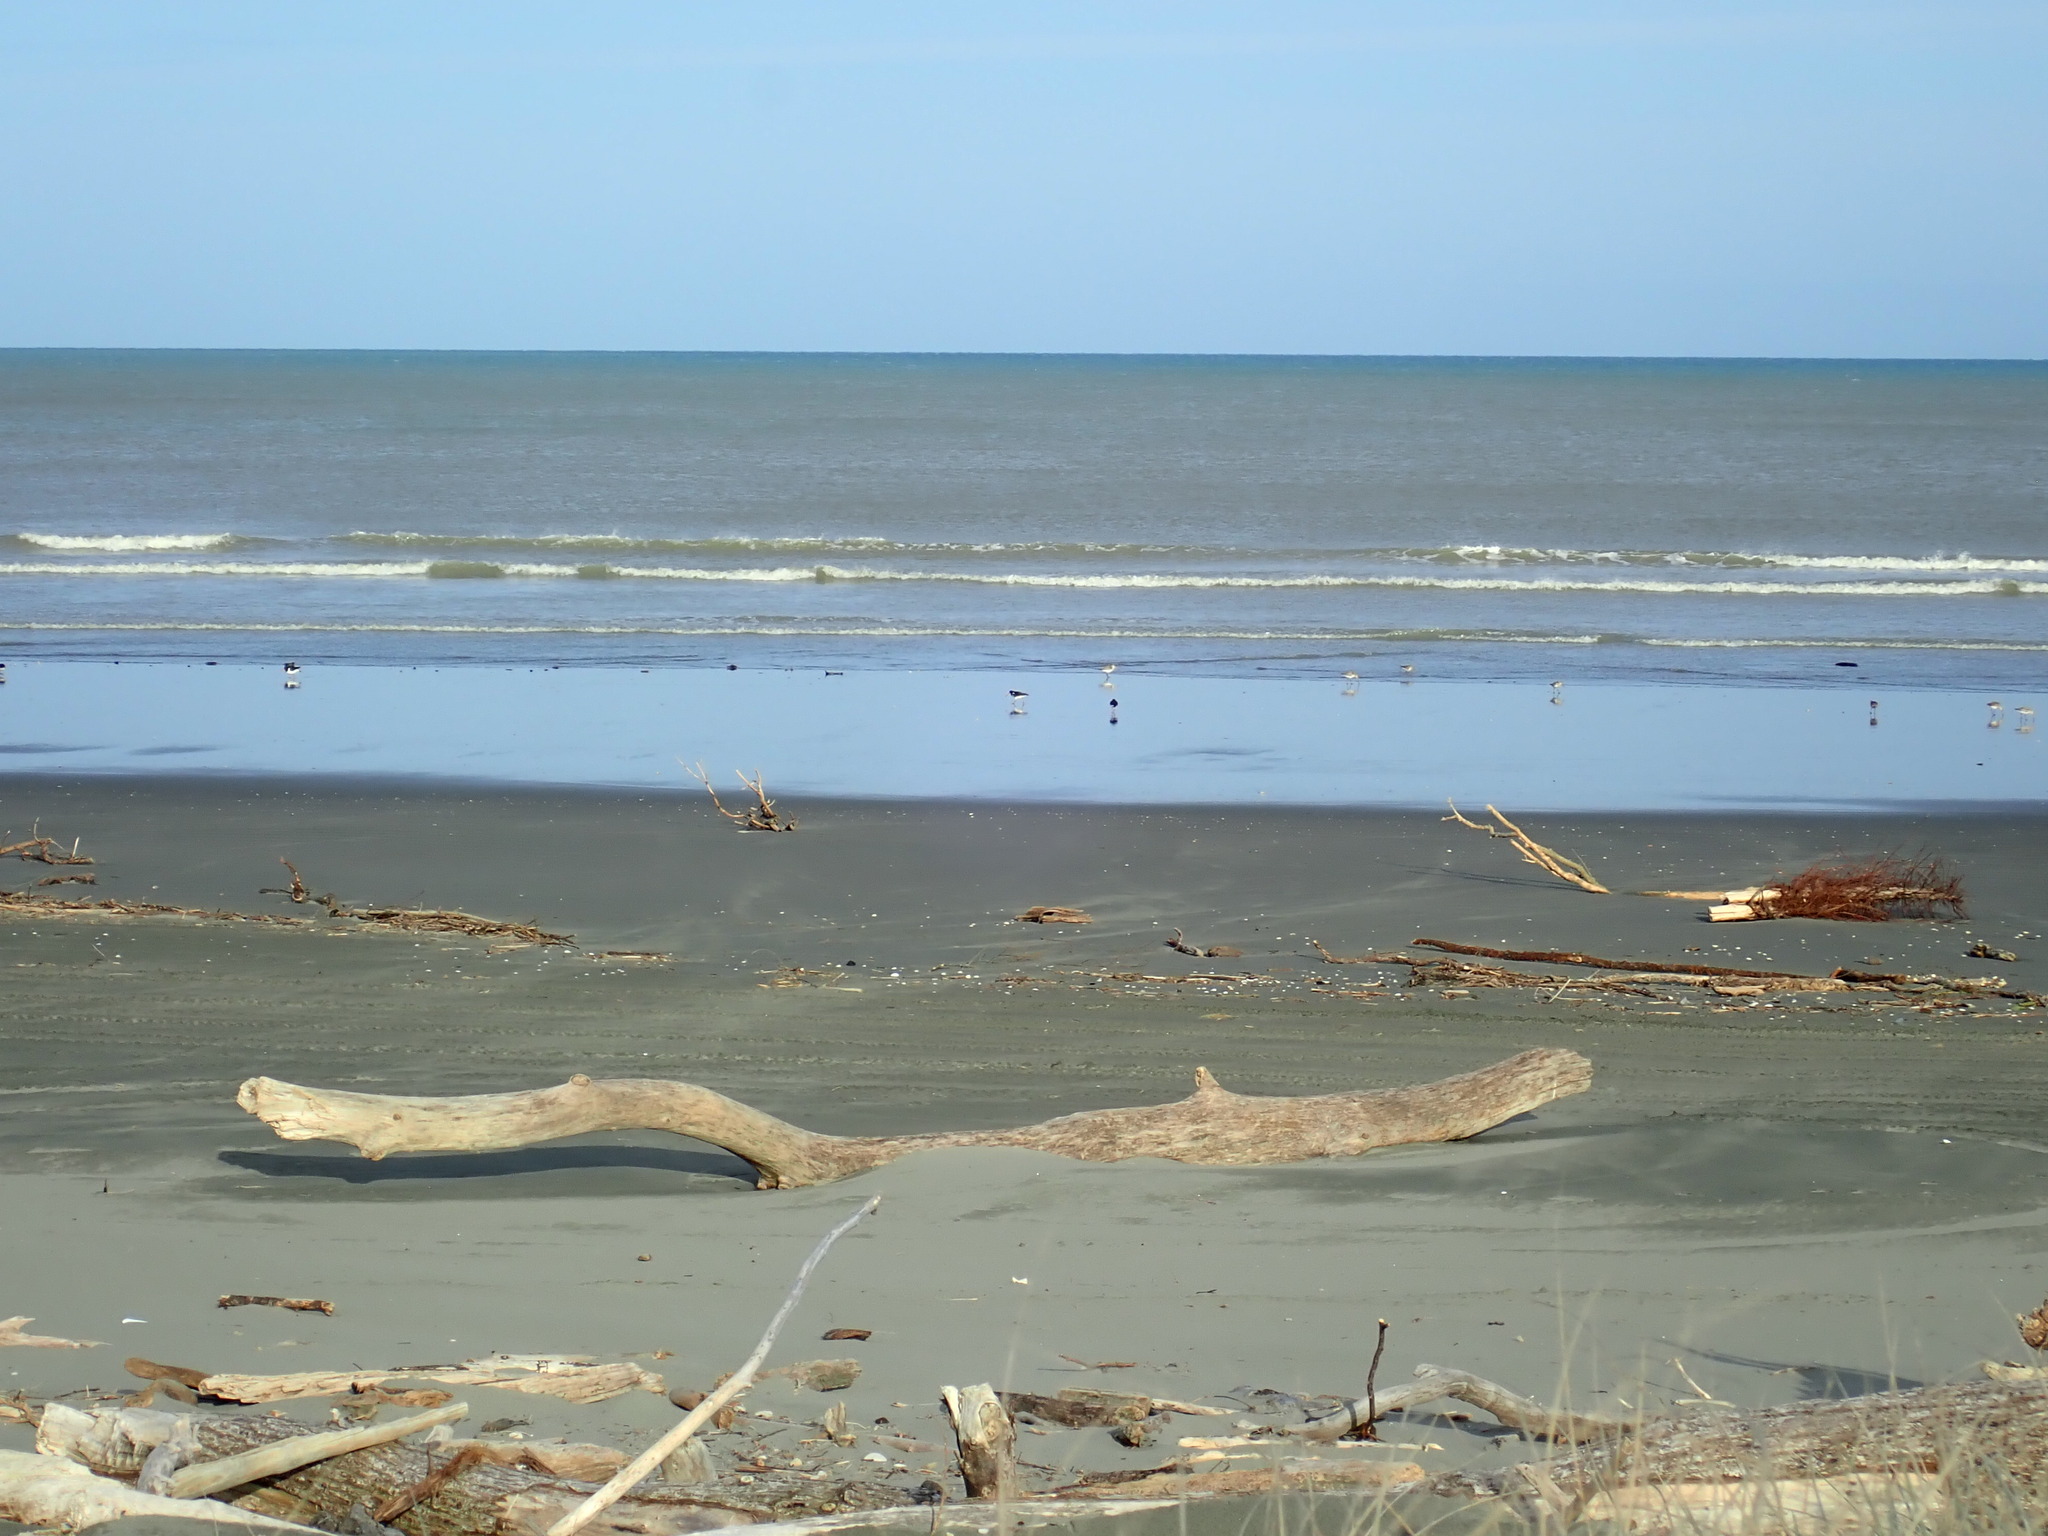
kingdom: Animalia
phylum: Chordata
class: Aves
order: Charadriiformes
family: Haematopodidae
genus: Haematopus
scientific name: Haematopus finschi
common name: South island oystercatcher
